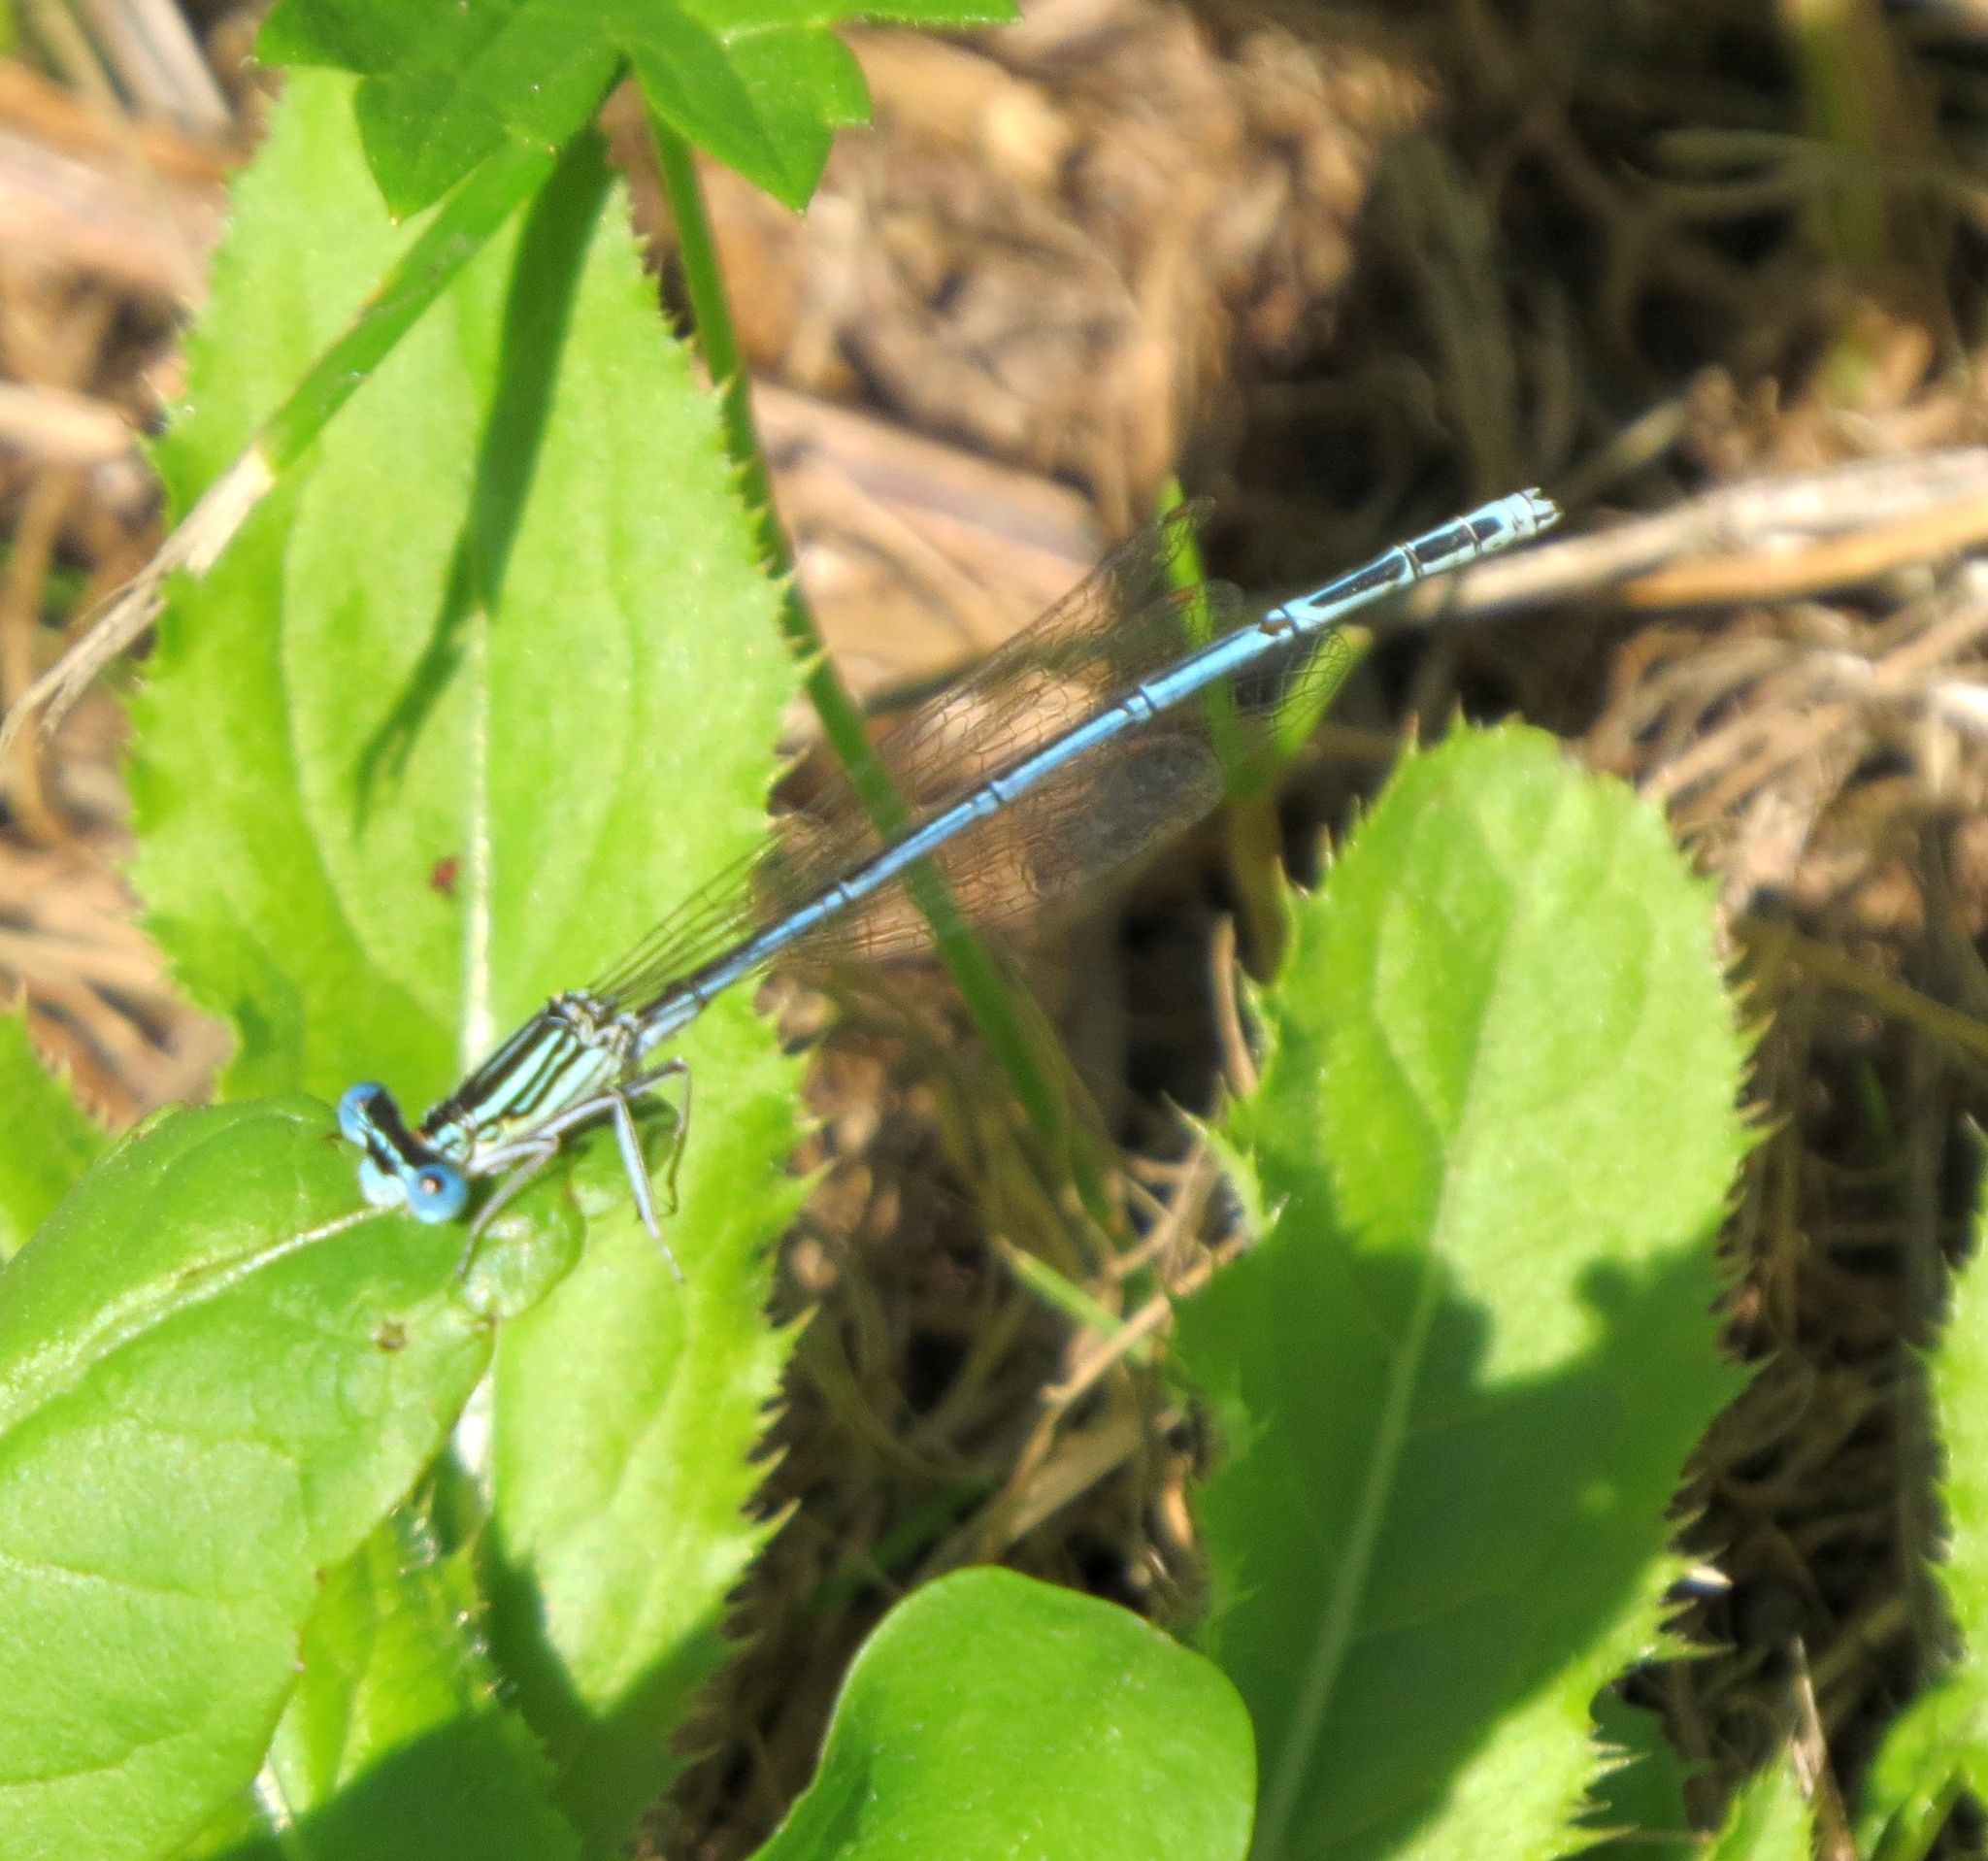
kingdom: Animalia
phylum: Arthropoda
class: Insecta
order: Odonata
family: Platycnemididae
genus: Platycnemis
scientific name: Platycnemis pennipes
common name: White-legged damselfly
